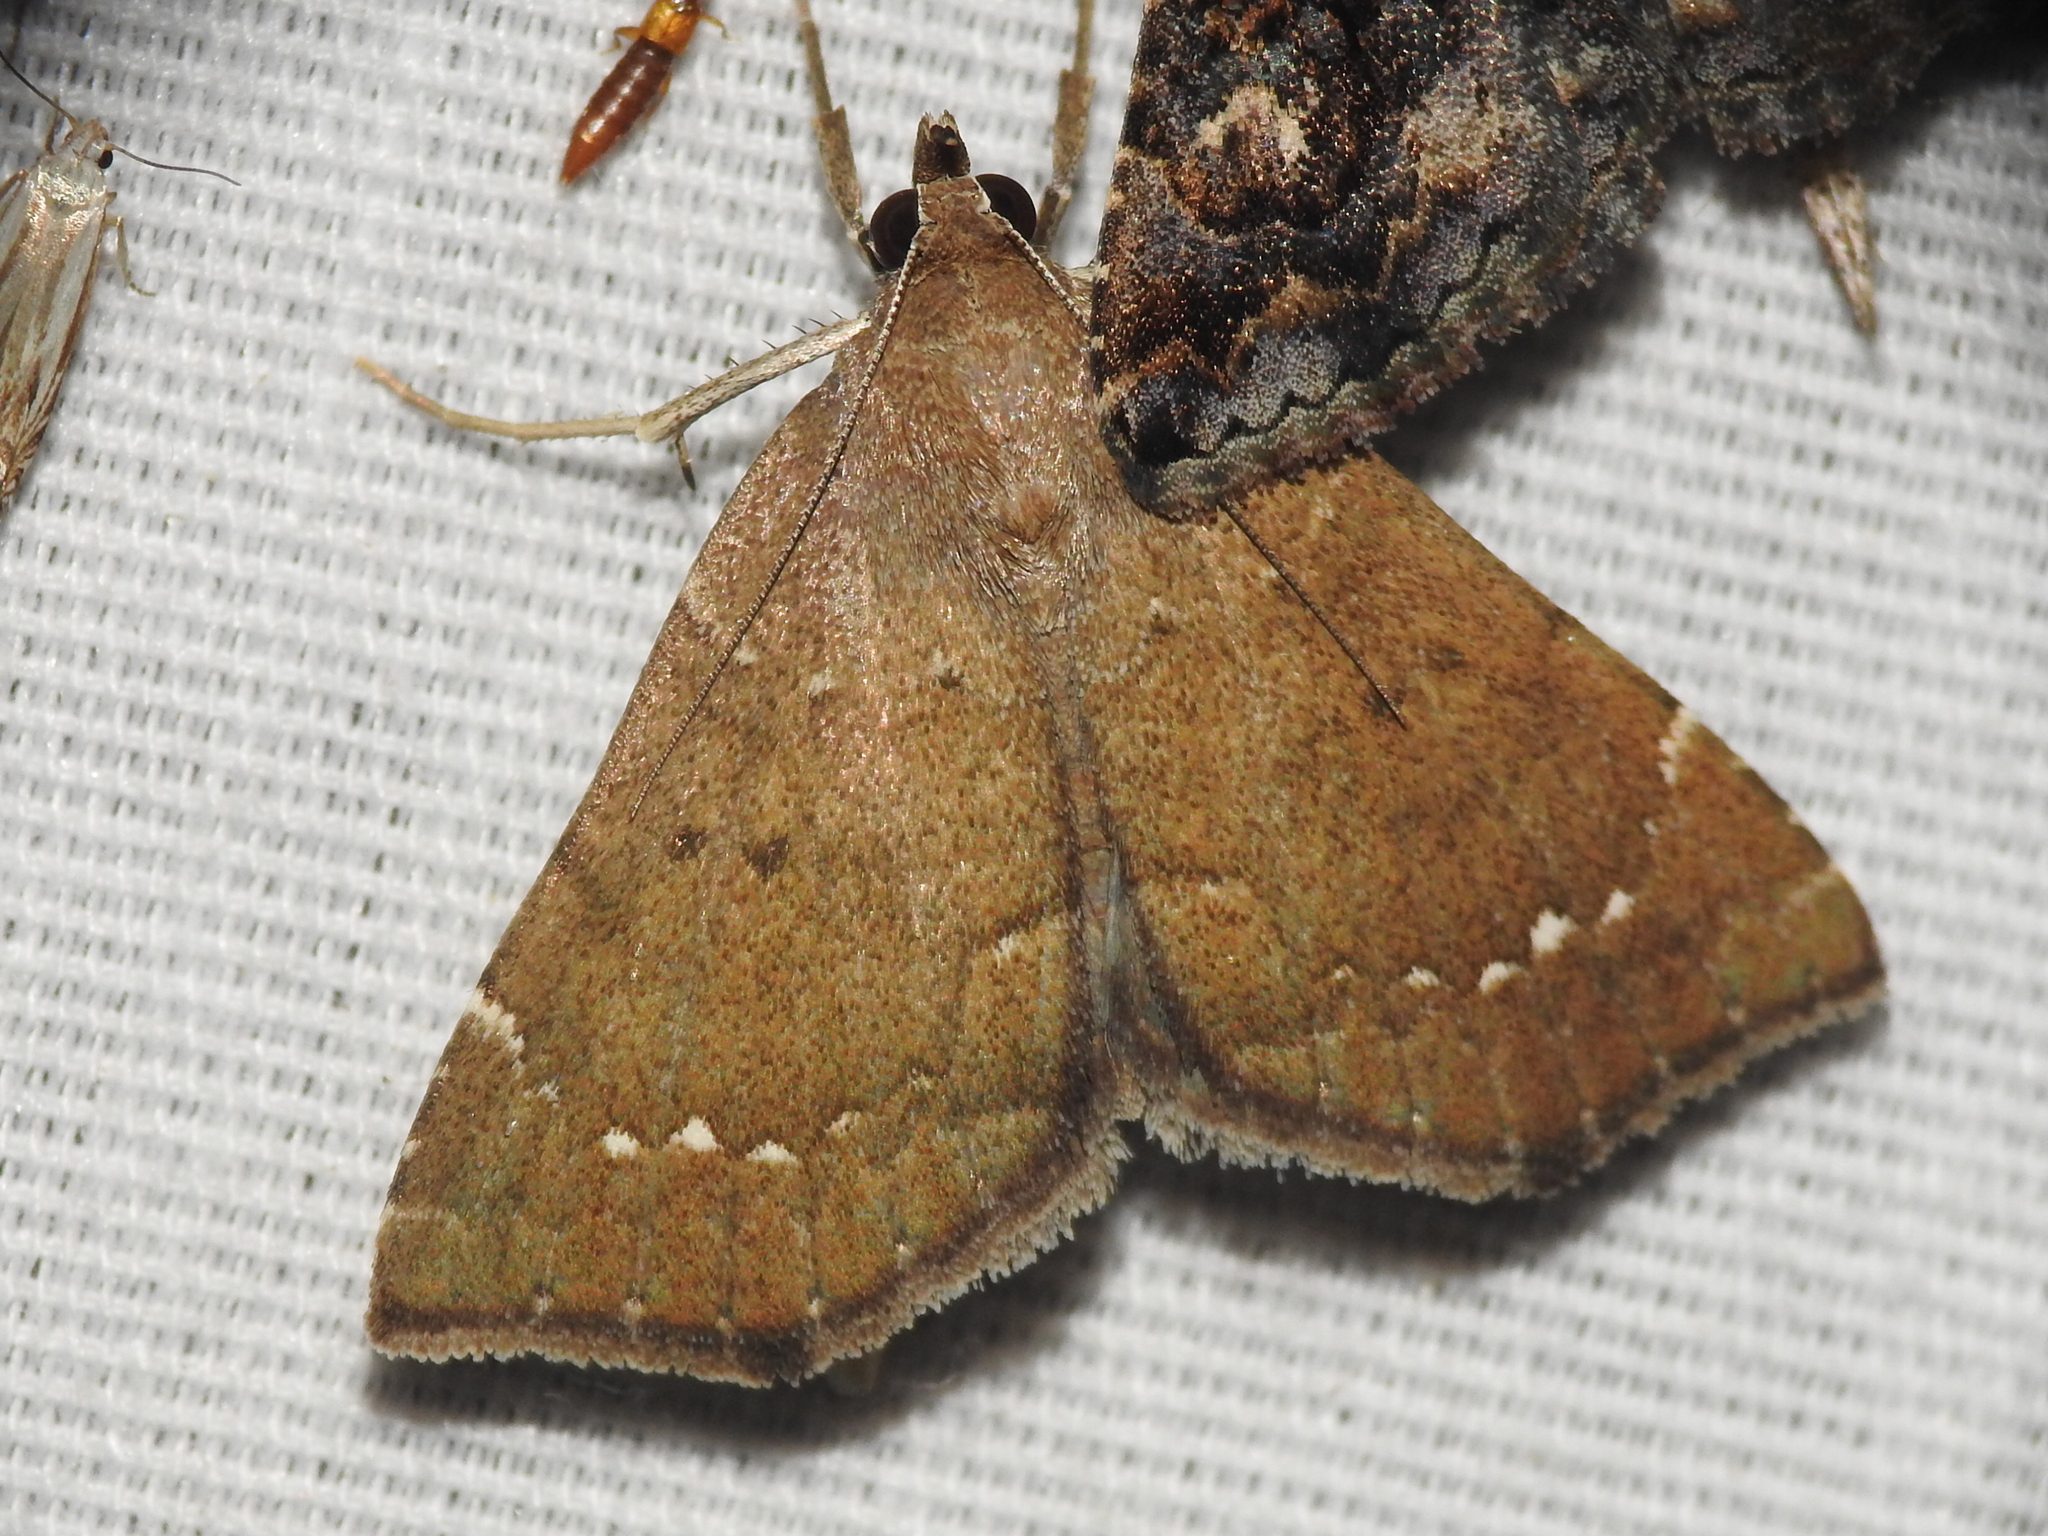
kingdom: Animalia
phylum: Arthropoda
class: Insecta
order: Lepidoptera
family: Erebidae
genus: Focillidia
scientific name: Focillidia texana
